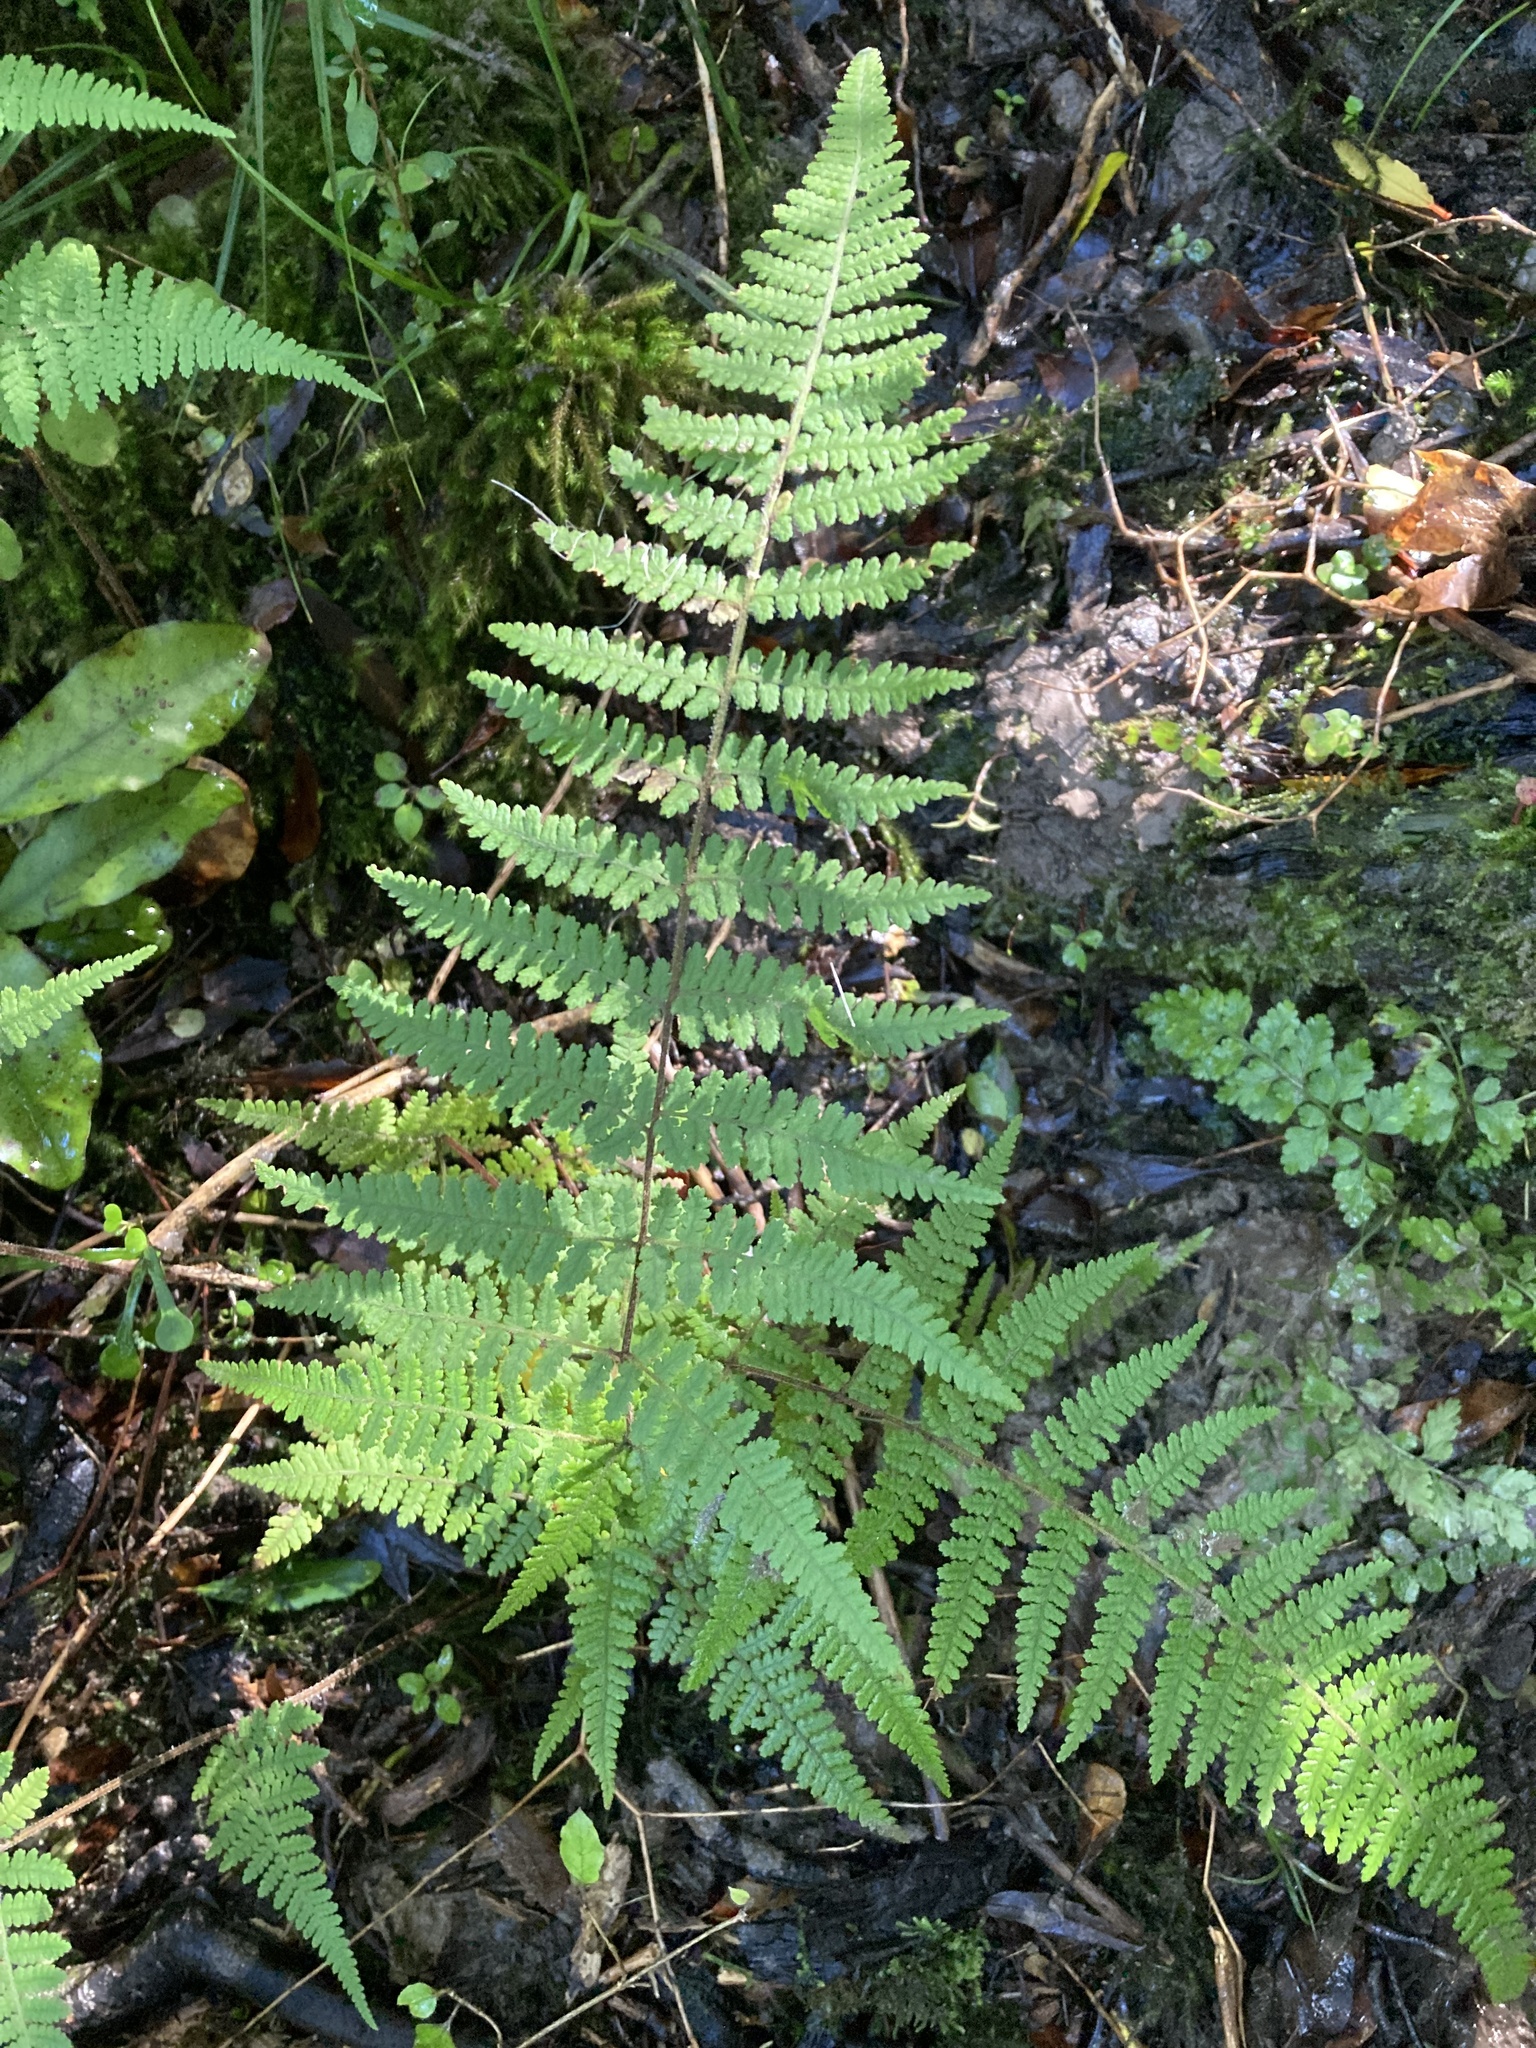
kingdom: Plantae
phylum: Tracheophyta
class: Polypodiopsida
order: Polypodiales
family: Dennstaedtiaceae
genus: Hypolepis
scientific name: Hypolepis rugosula
